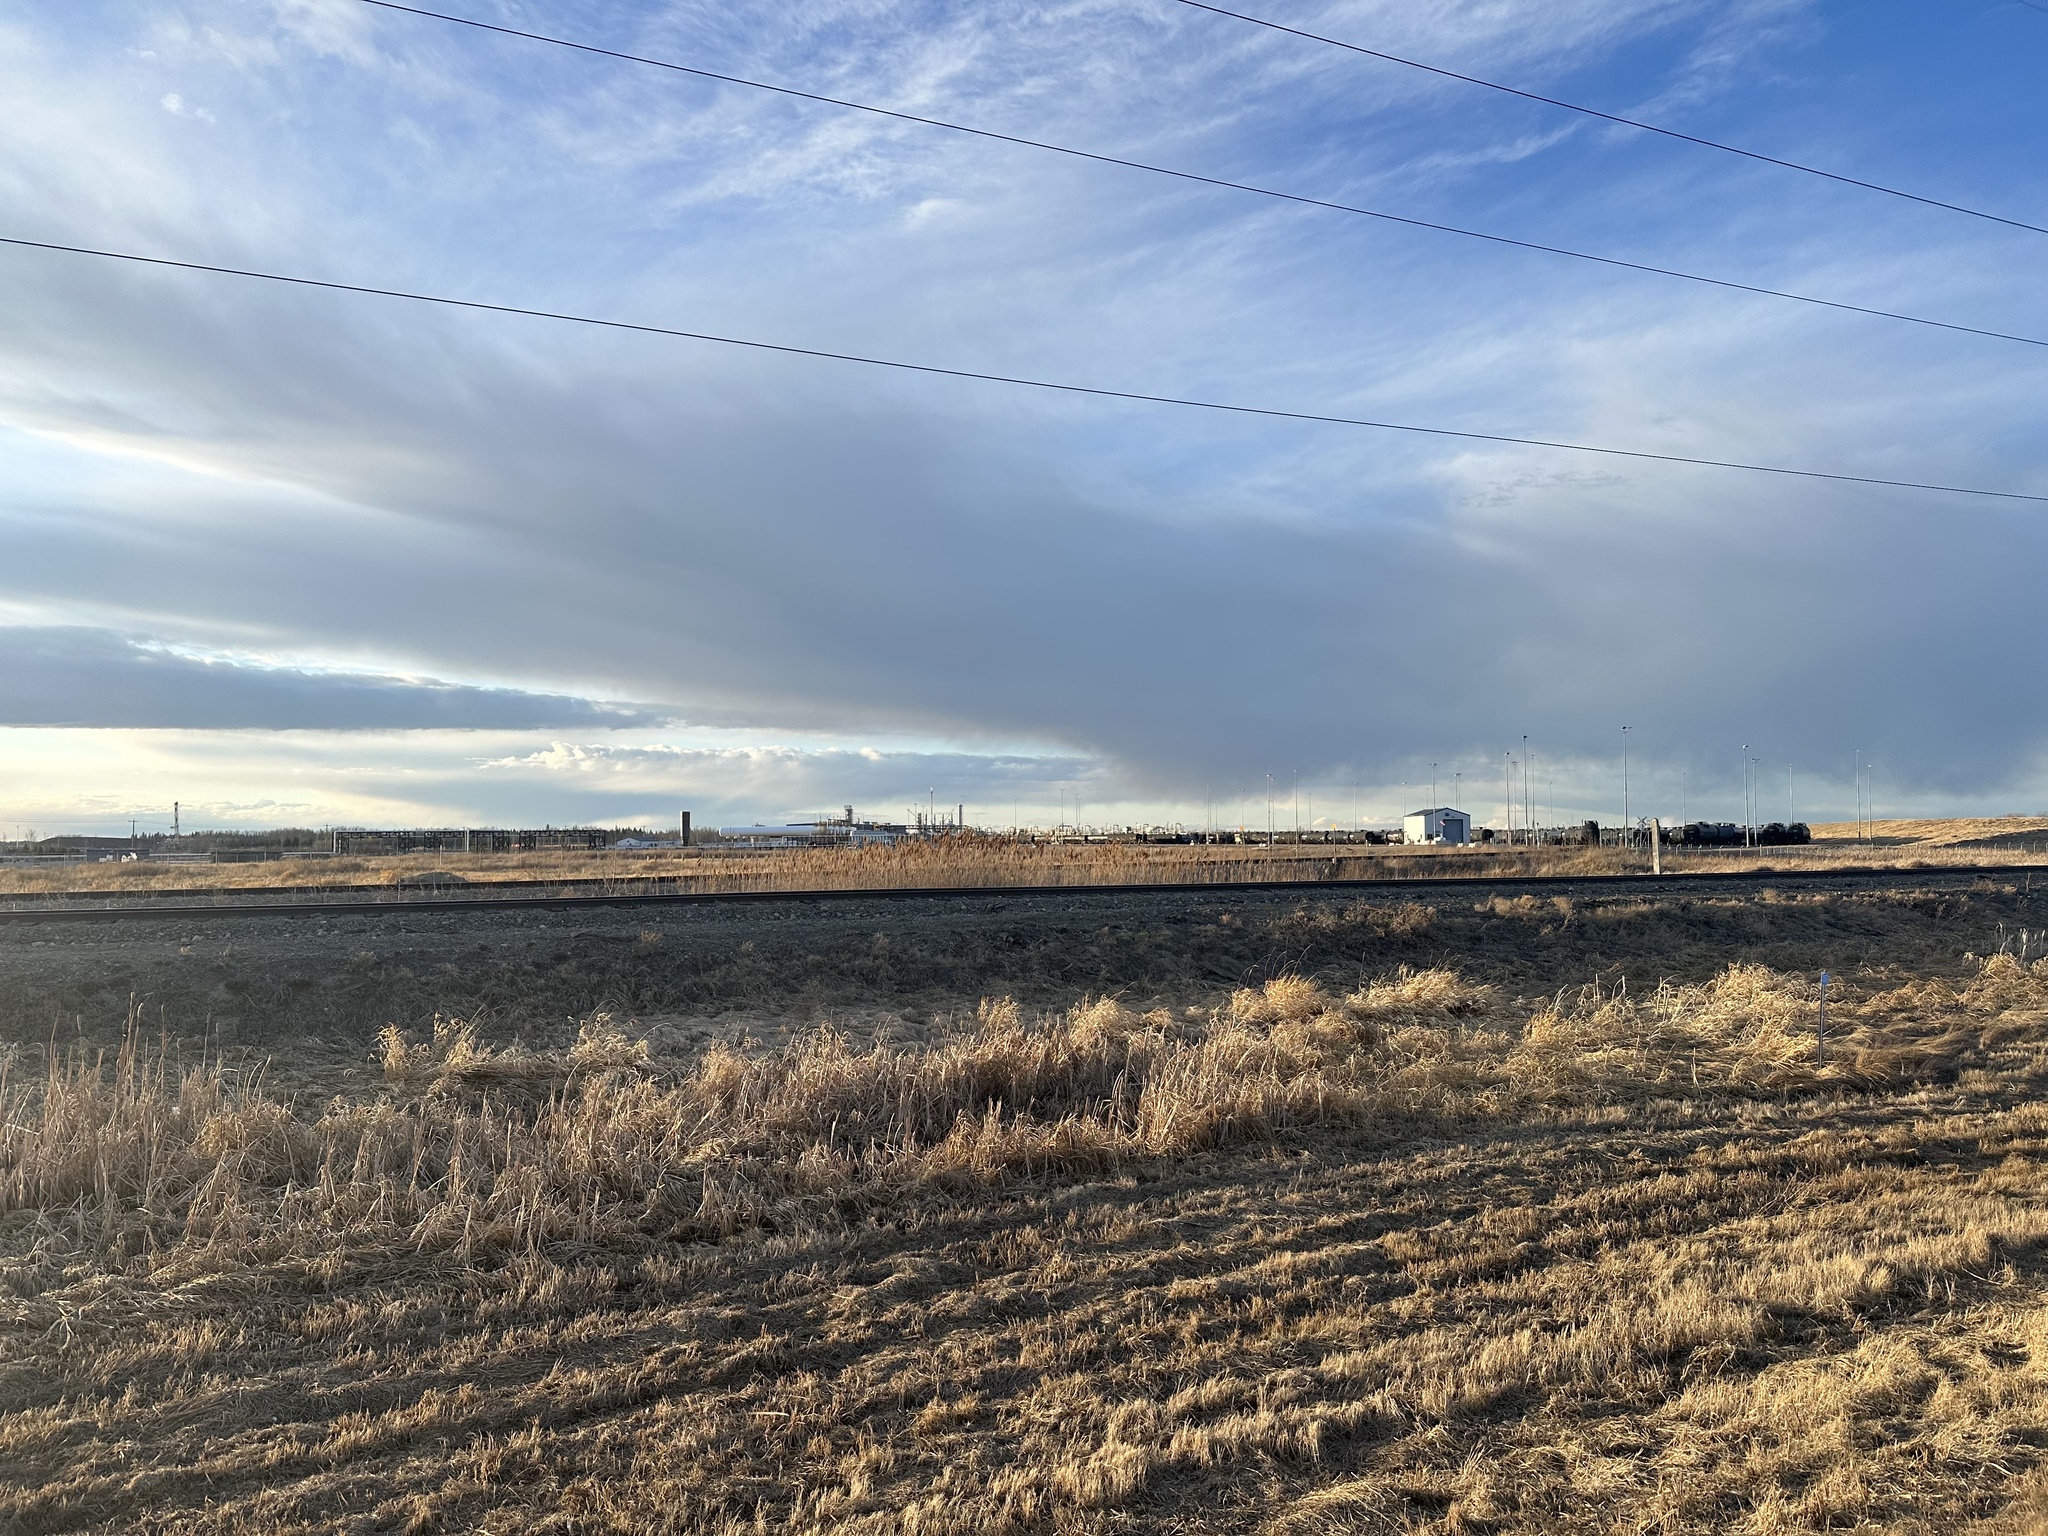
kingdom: Plantae
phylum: Tracheophyta
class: Liliopsida
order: Poales
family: Poaceae
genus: Phragmites
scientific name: Phragmites australis
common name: Common reed
